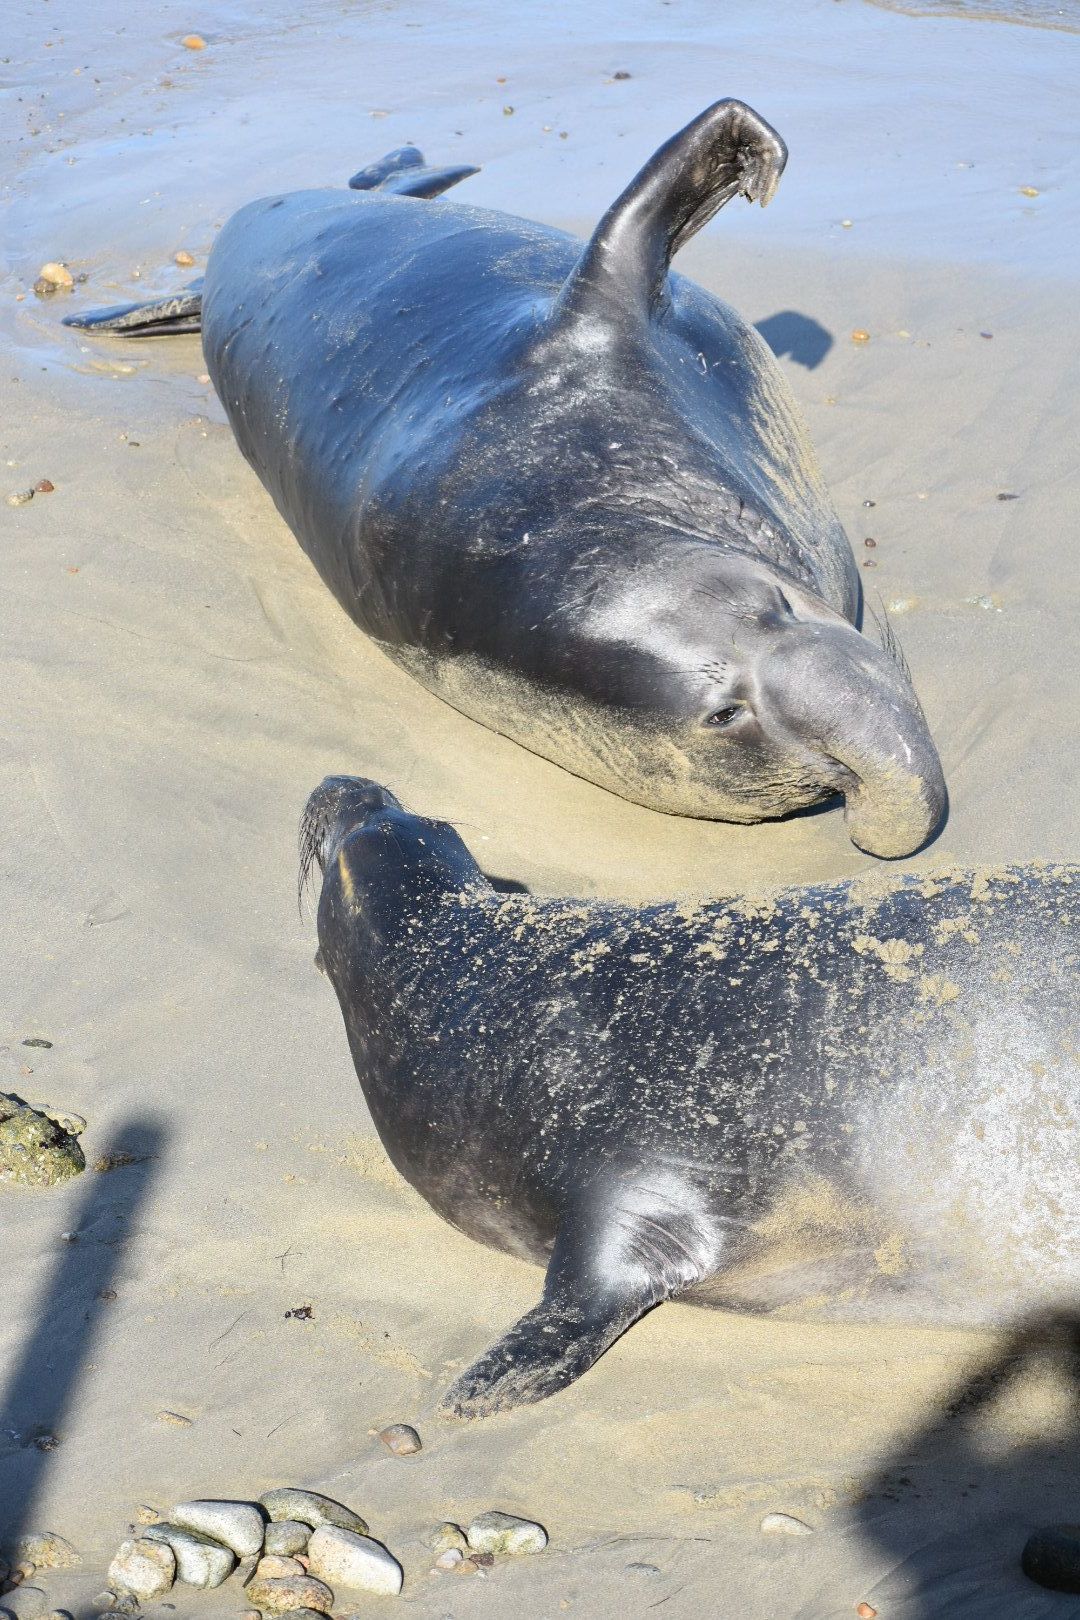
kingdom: Animalia
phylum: Chordata
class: Mammalia
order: Carnivora
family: Phocidae
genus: Mirounga
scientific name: Mirounga angustirostris
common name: Northern elephant seal
